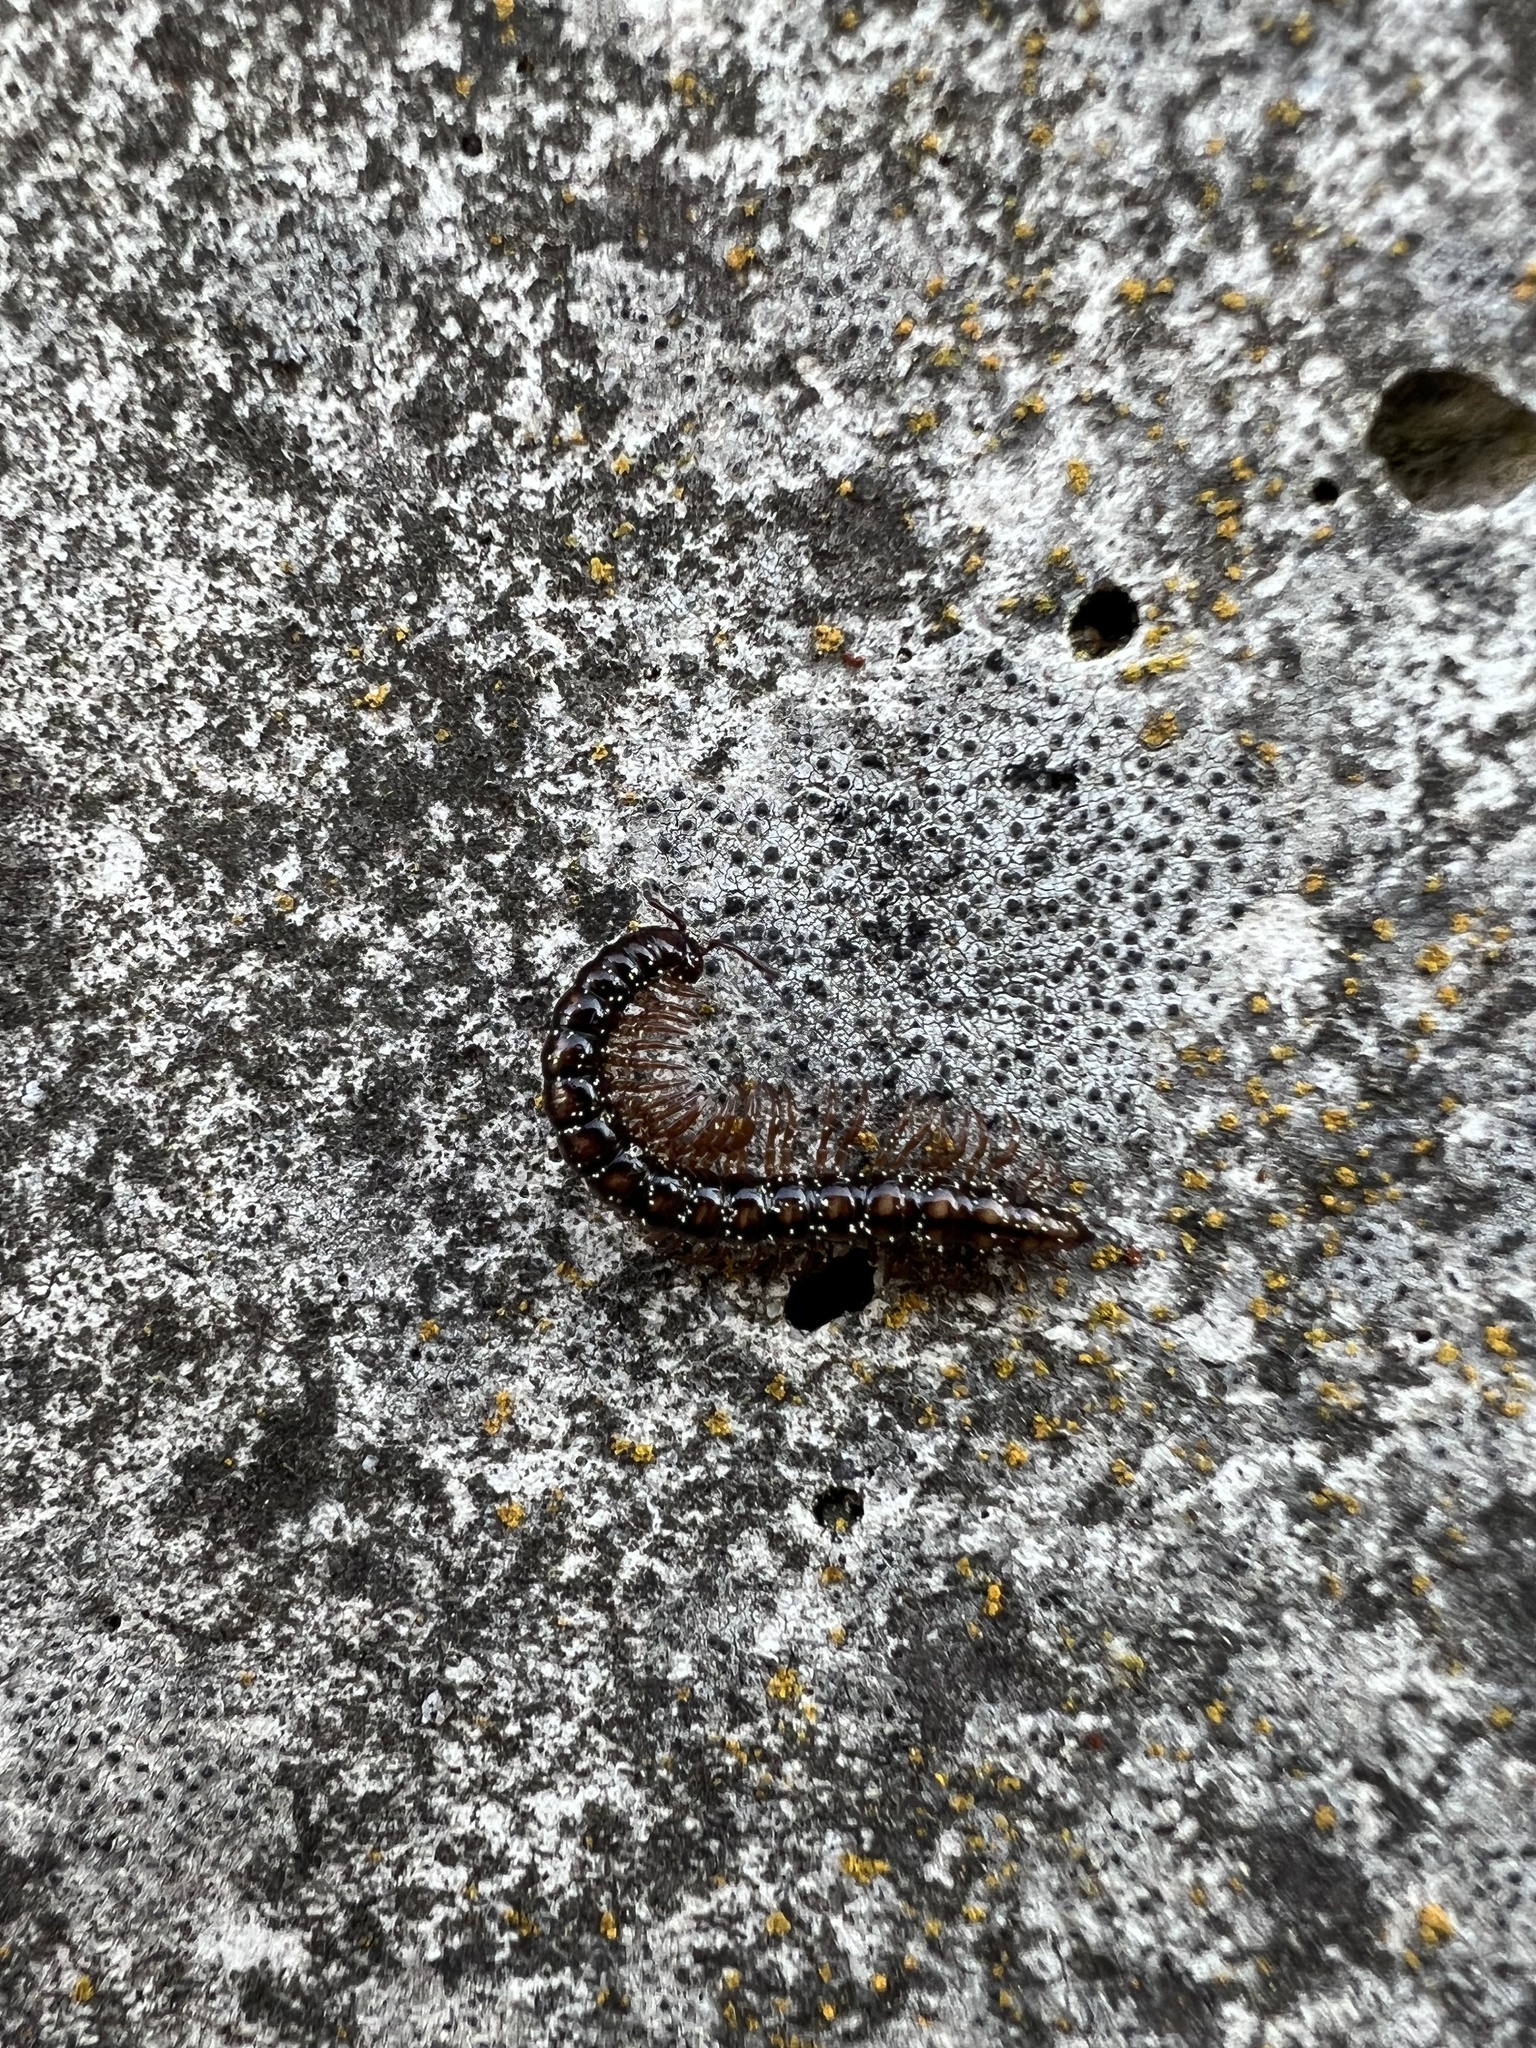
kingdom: Animalia
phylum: Arthropoda
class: Diplopoda
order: Polydesmida
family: Paradoxosomatidae
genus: Strongylosoma
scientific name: Strongylosoma stigmatosus
